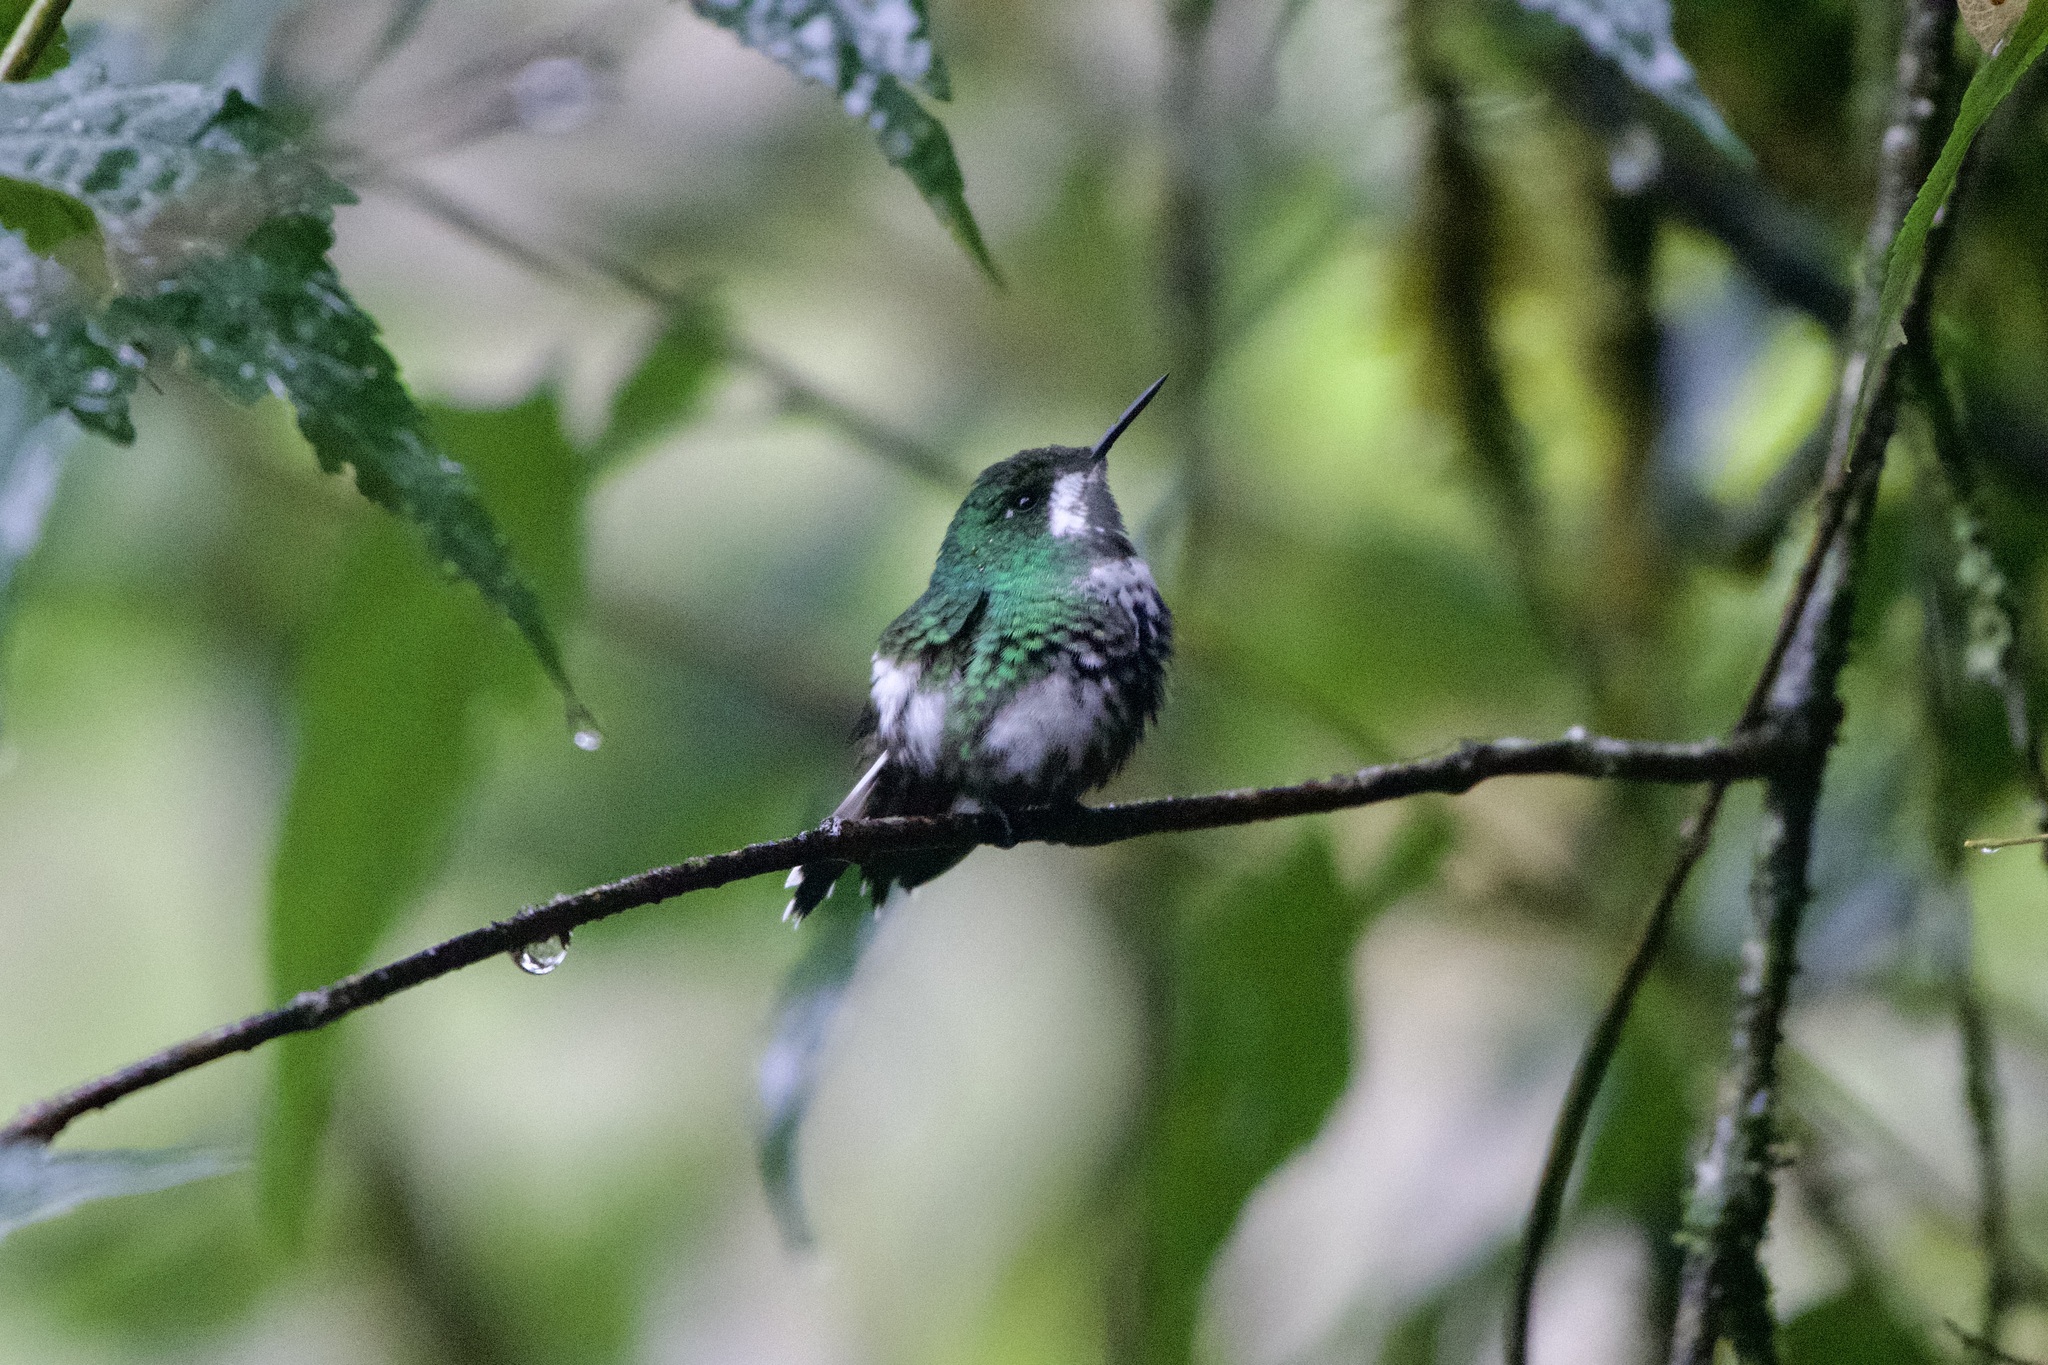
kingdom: Animalia
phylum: Chordata
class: Aves
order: Apodiformes
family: Trochilidae
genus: Discosura
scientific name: Discosura conversii
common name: Green thorntail
